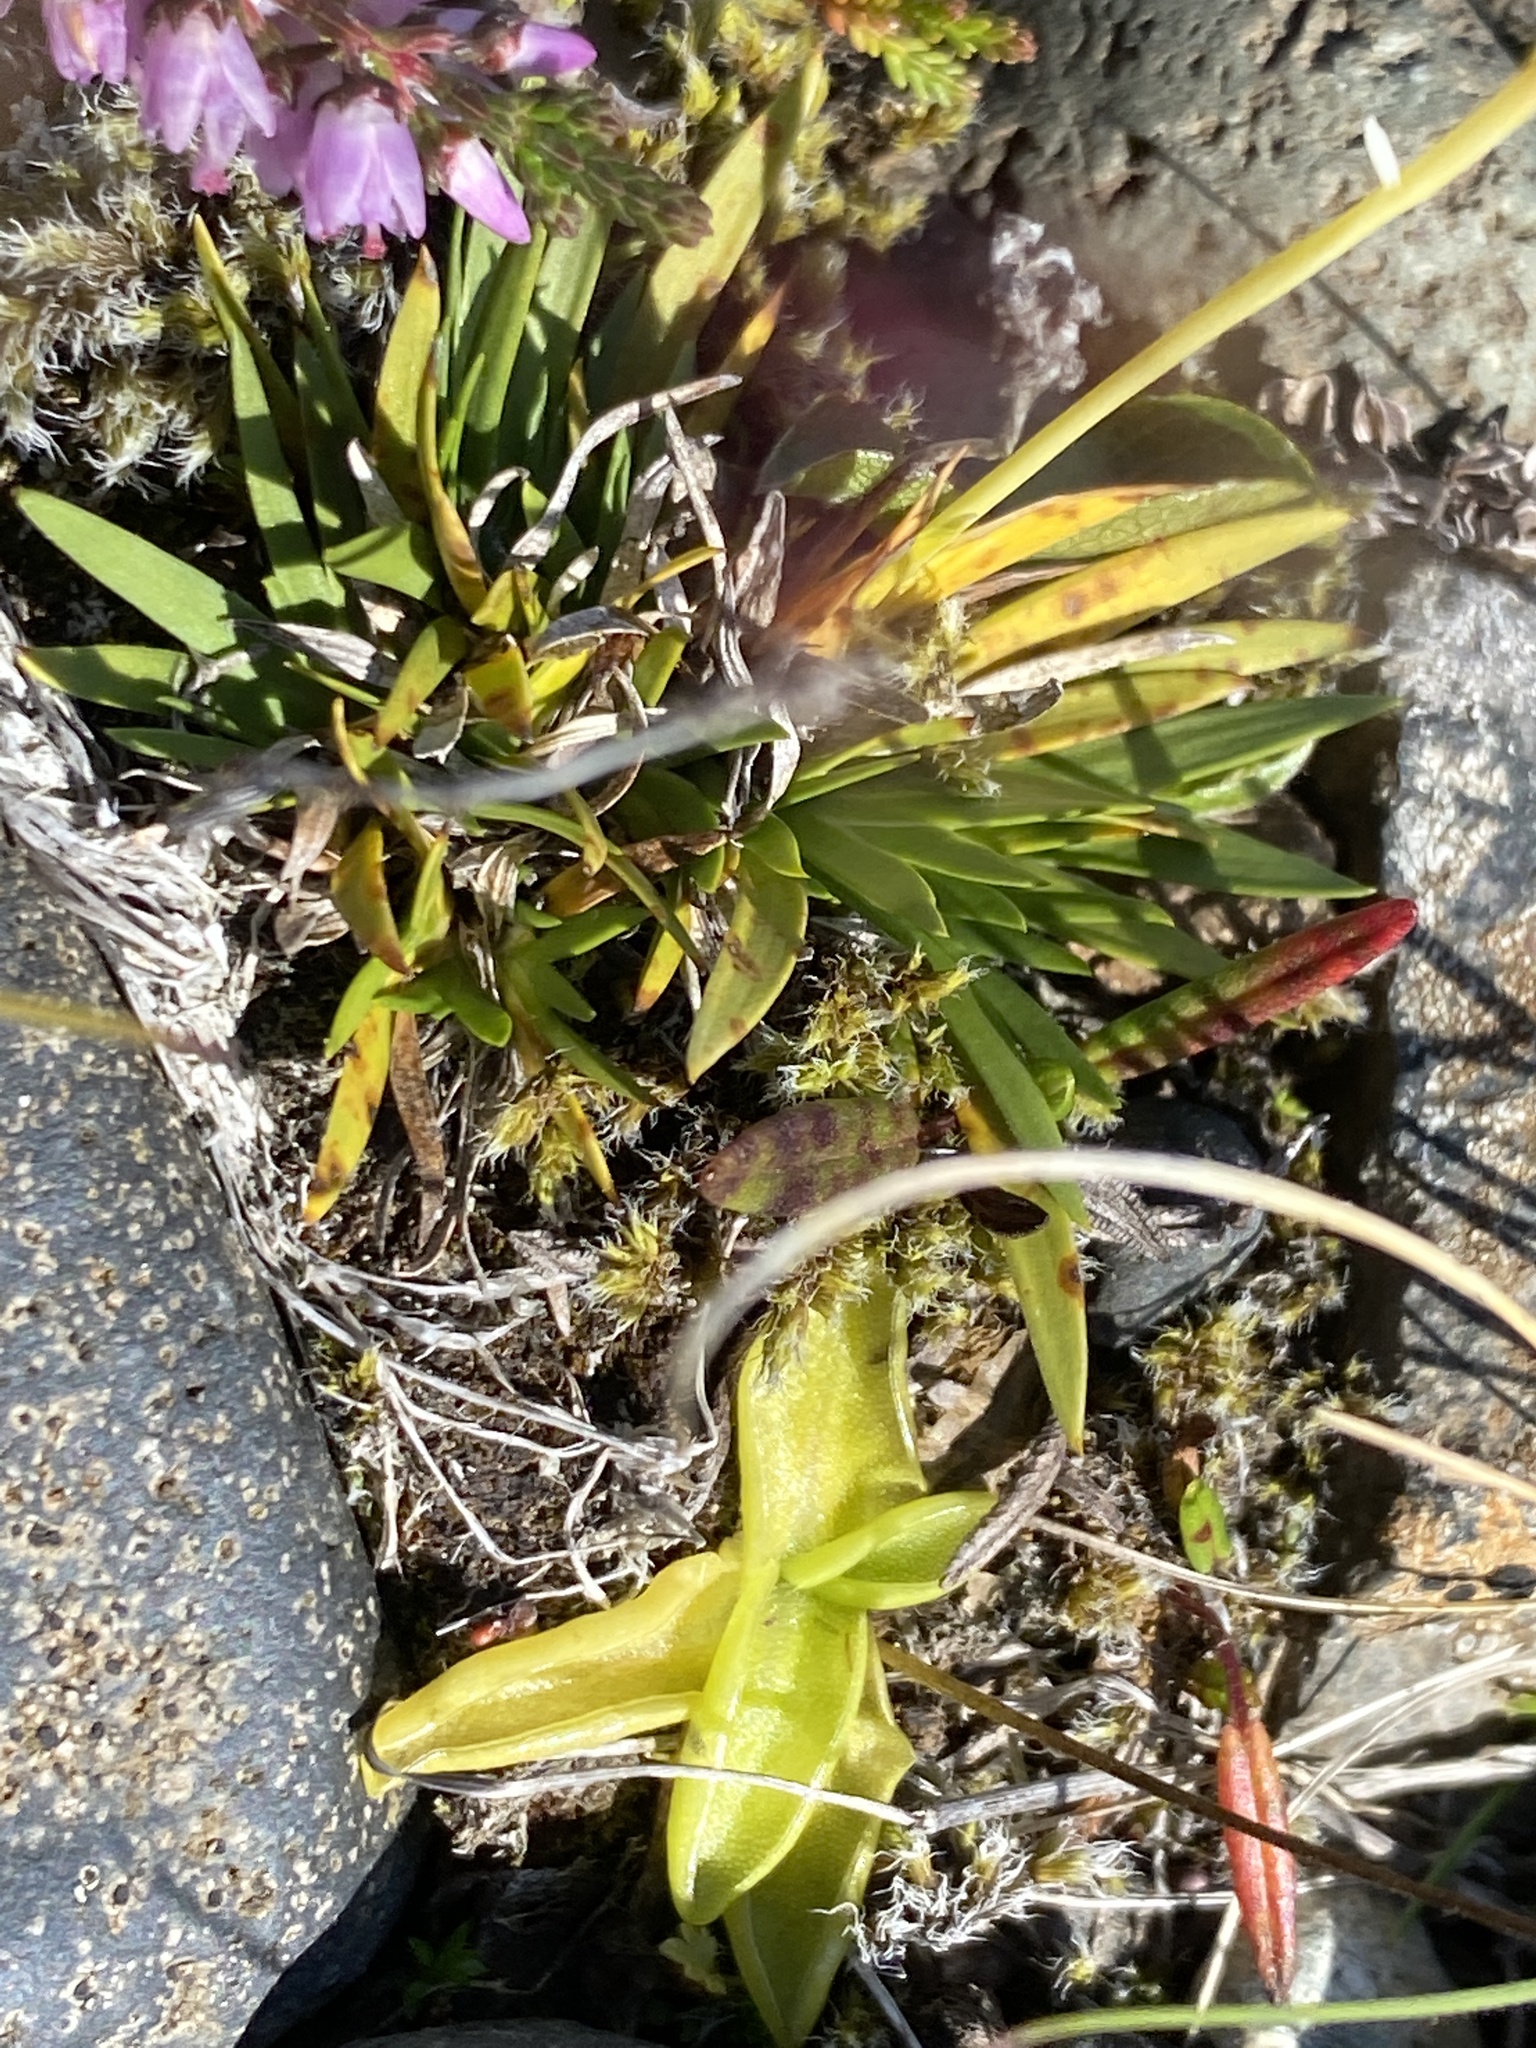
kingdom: Plantae
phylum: Tracheophyta
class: Magnoliopsida
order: Lamiales
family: Lentibulariaceae
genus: Pinguicula
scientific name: Pinguicula vulgaris
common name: Common butterwort
